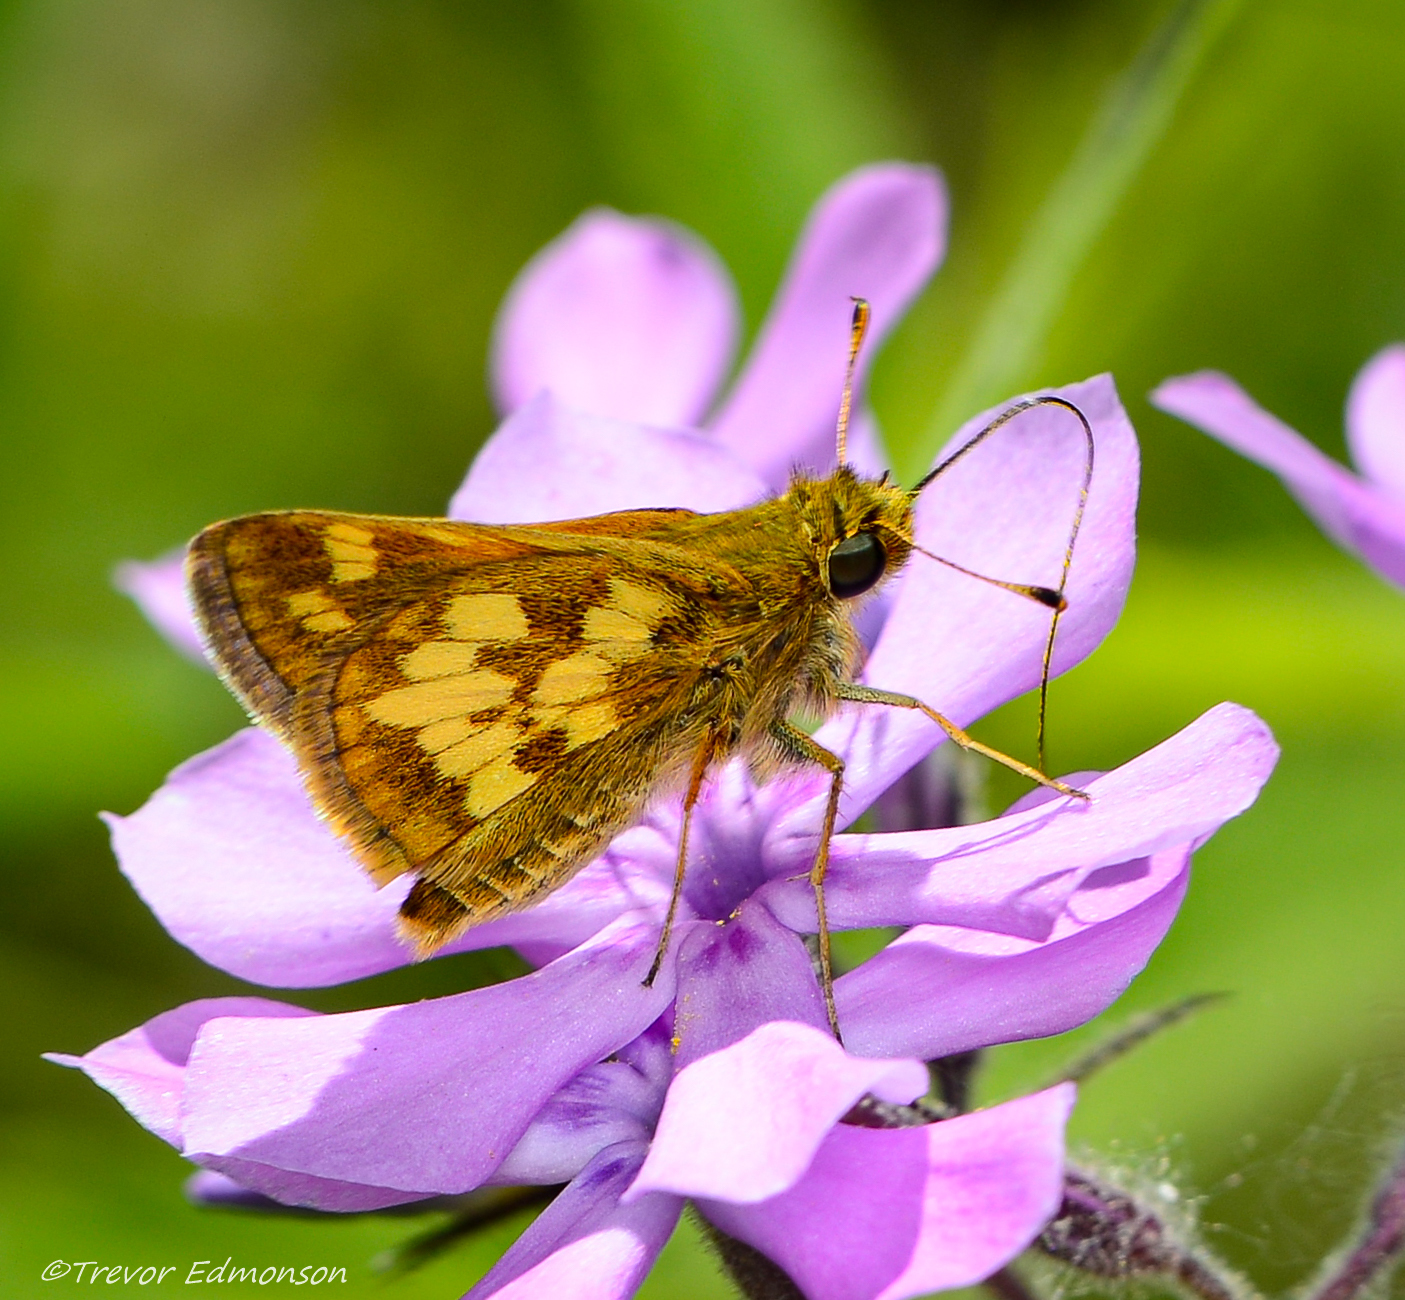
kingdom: Animalia
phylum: Arthropoda
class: Insecta
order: Lepidoptera
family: Hesperiidae
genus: Polites
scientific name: Polites coras
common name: Peck's skipper
